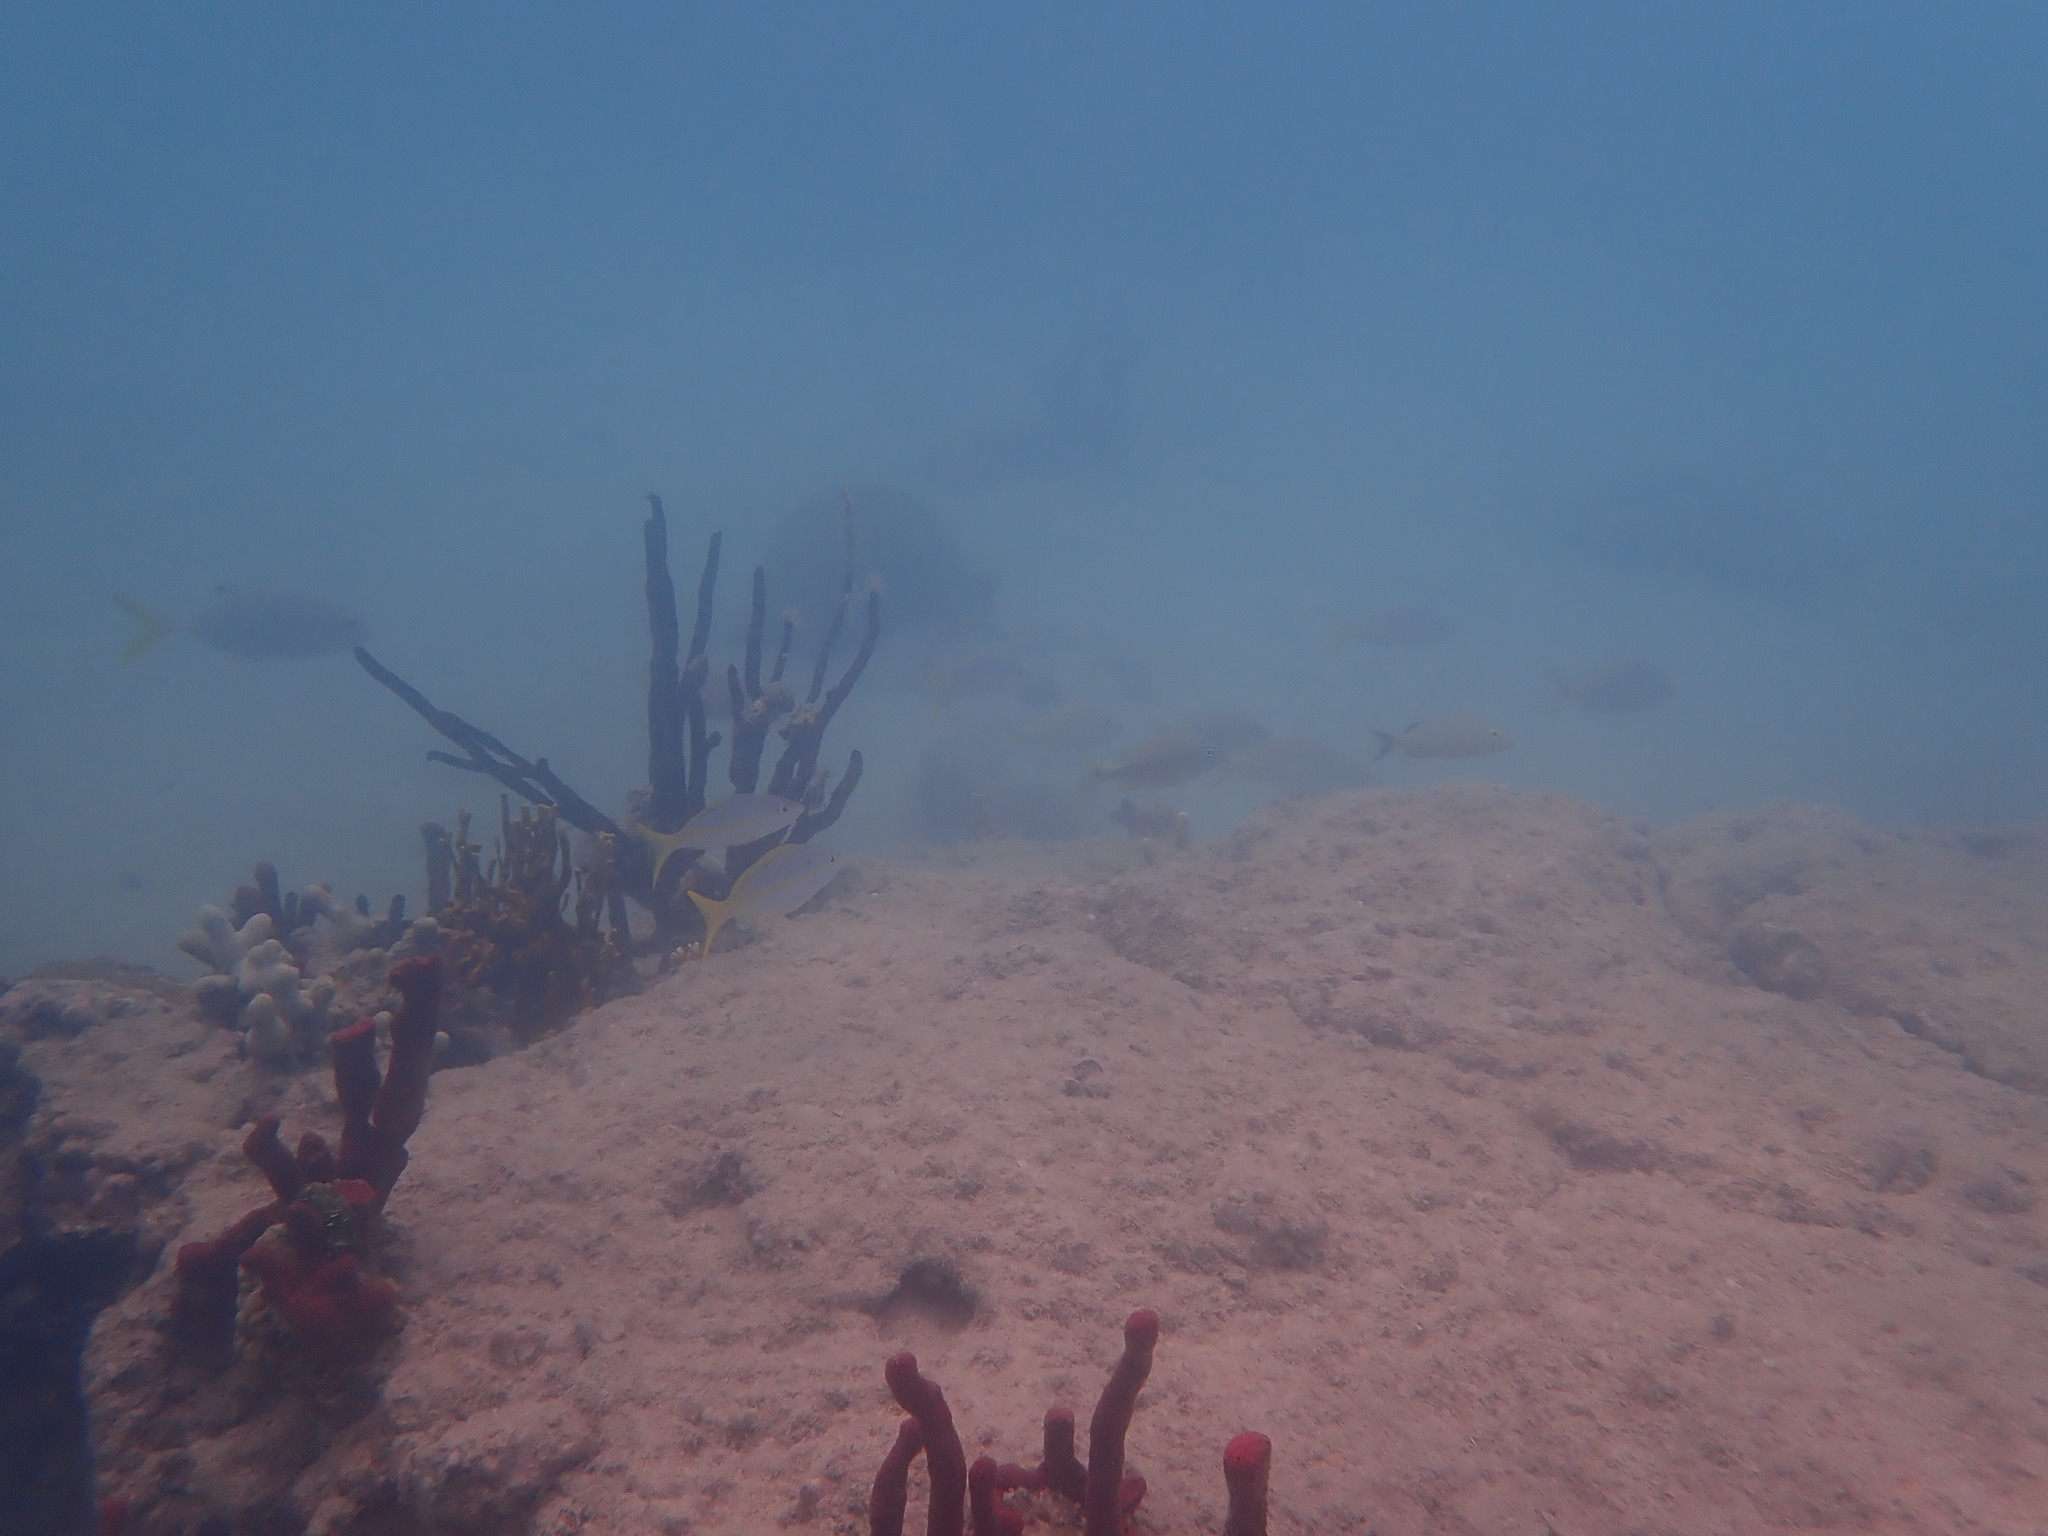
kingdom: Animalia
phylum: Chordata
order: Perciformes
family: Lutjanidae
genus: Ocyurus
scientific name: Ocyurus chrysurus
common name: Yellowtail snapper
